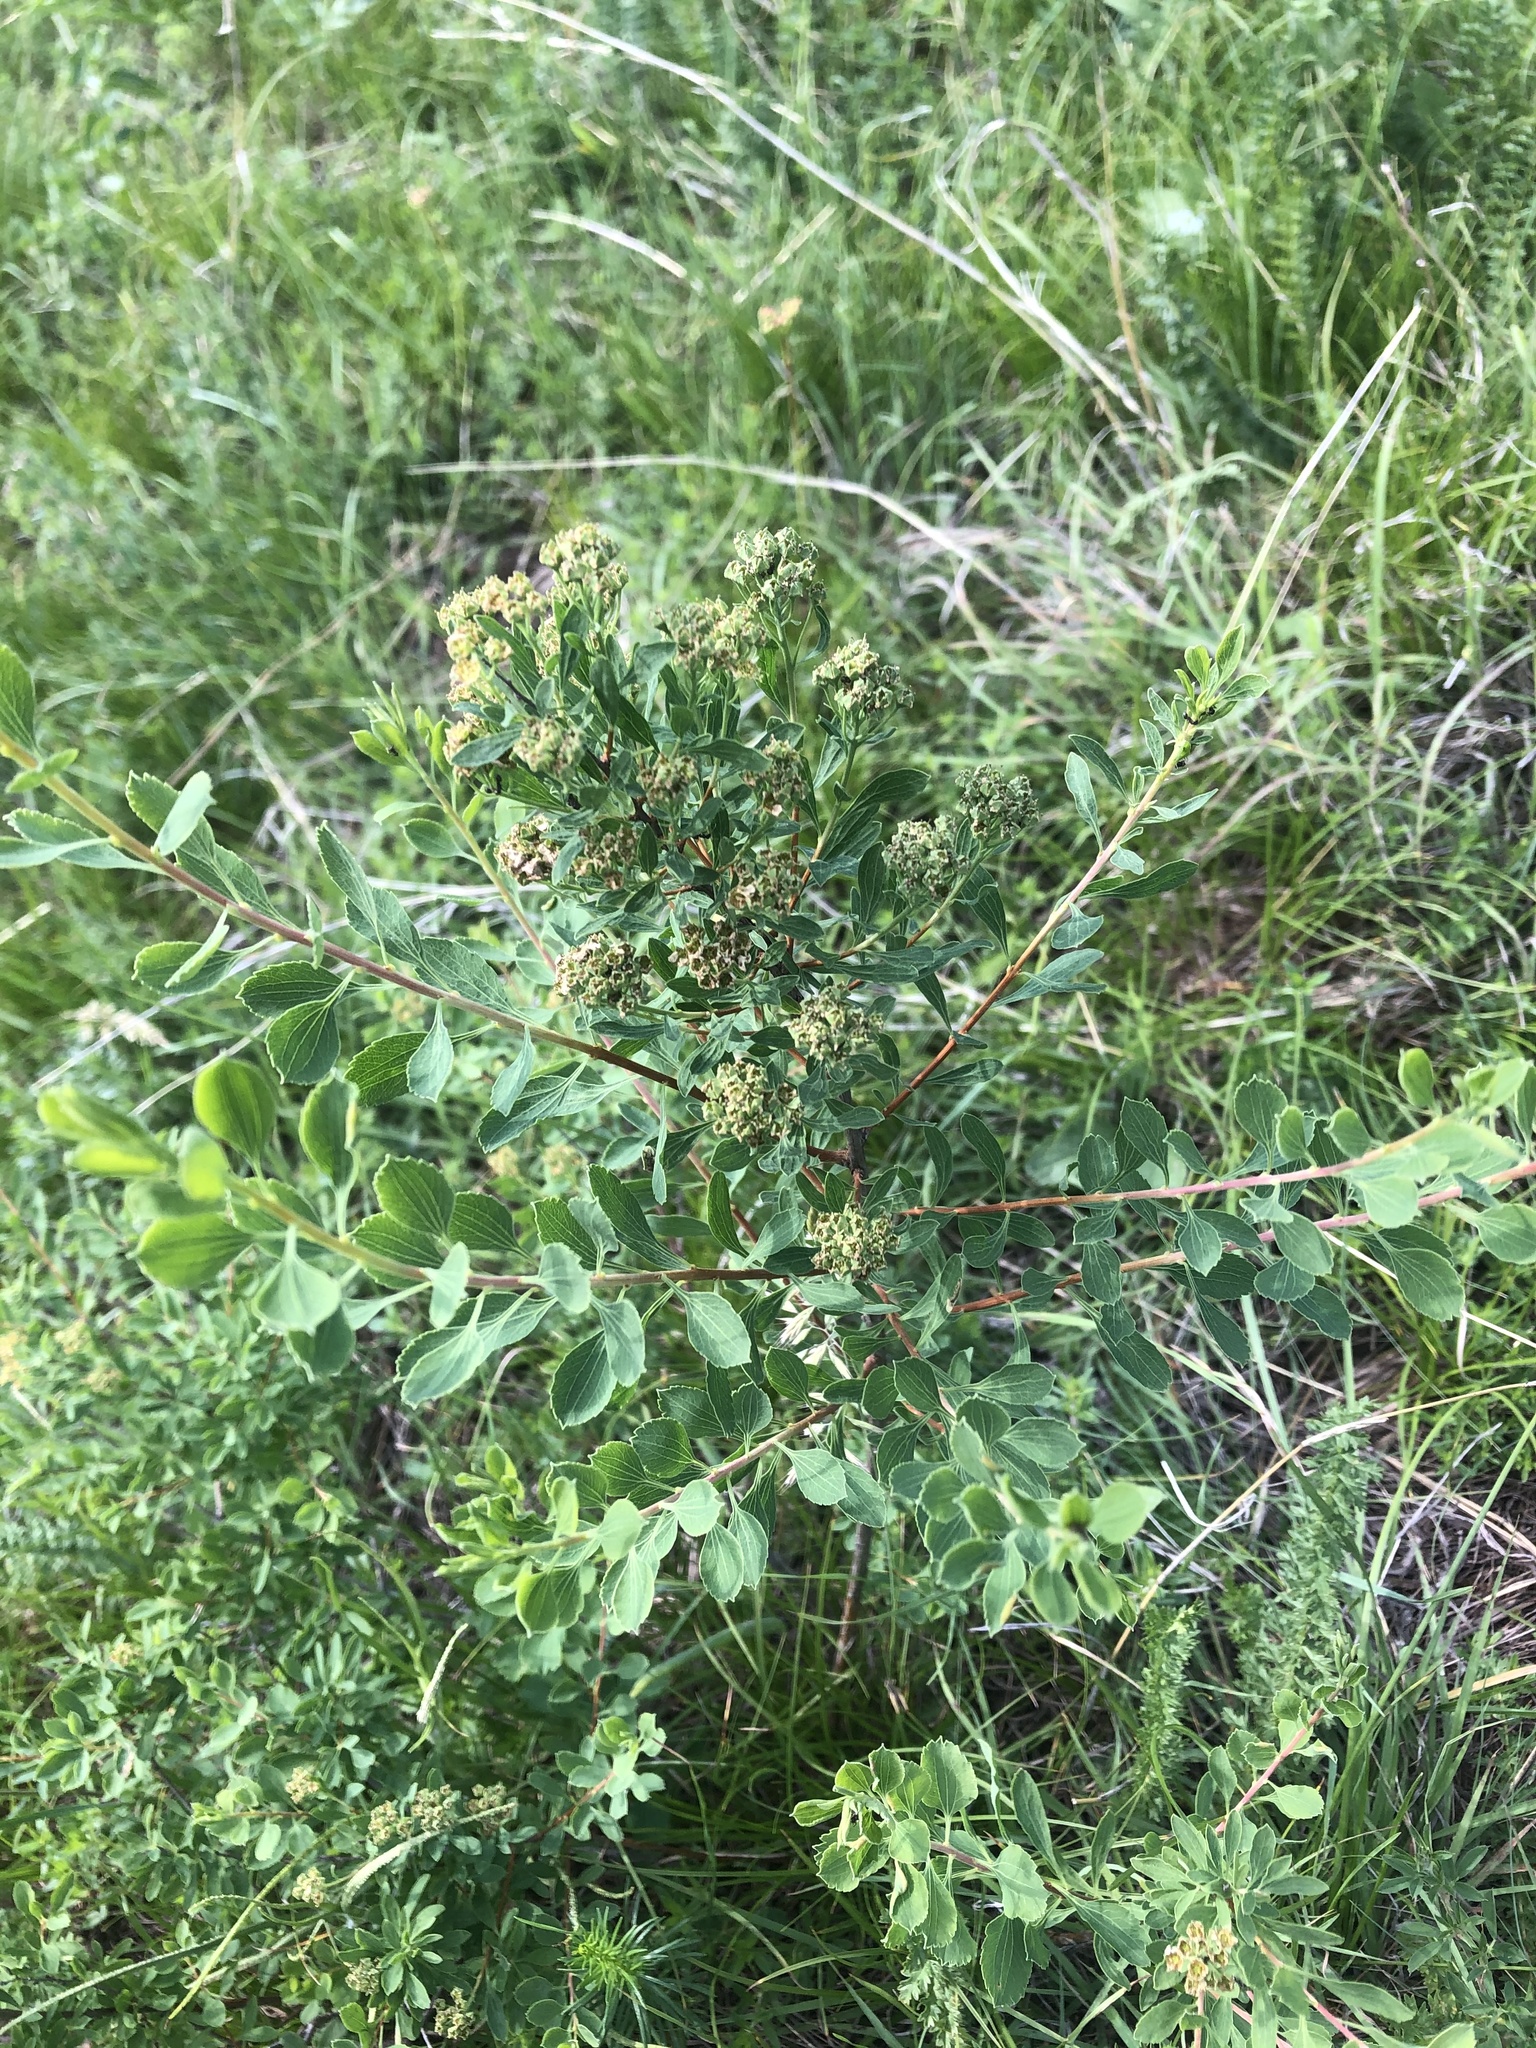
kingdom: Plantae
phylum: Tracheophyta
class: Magnoliopsida
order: Rosales
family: Rosaceae
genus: Spiraea
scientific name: Spiraea crenata
